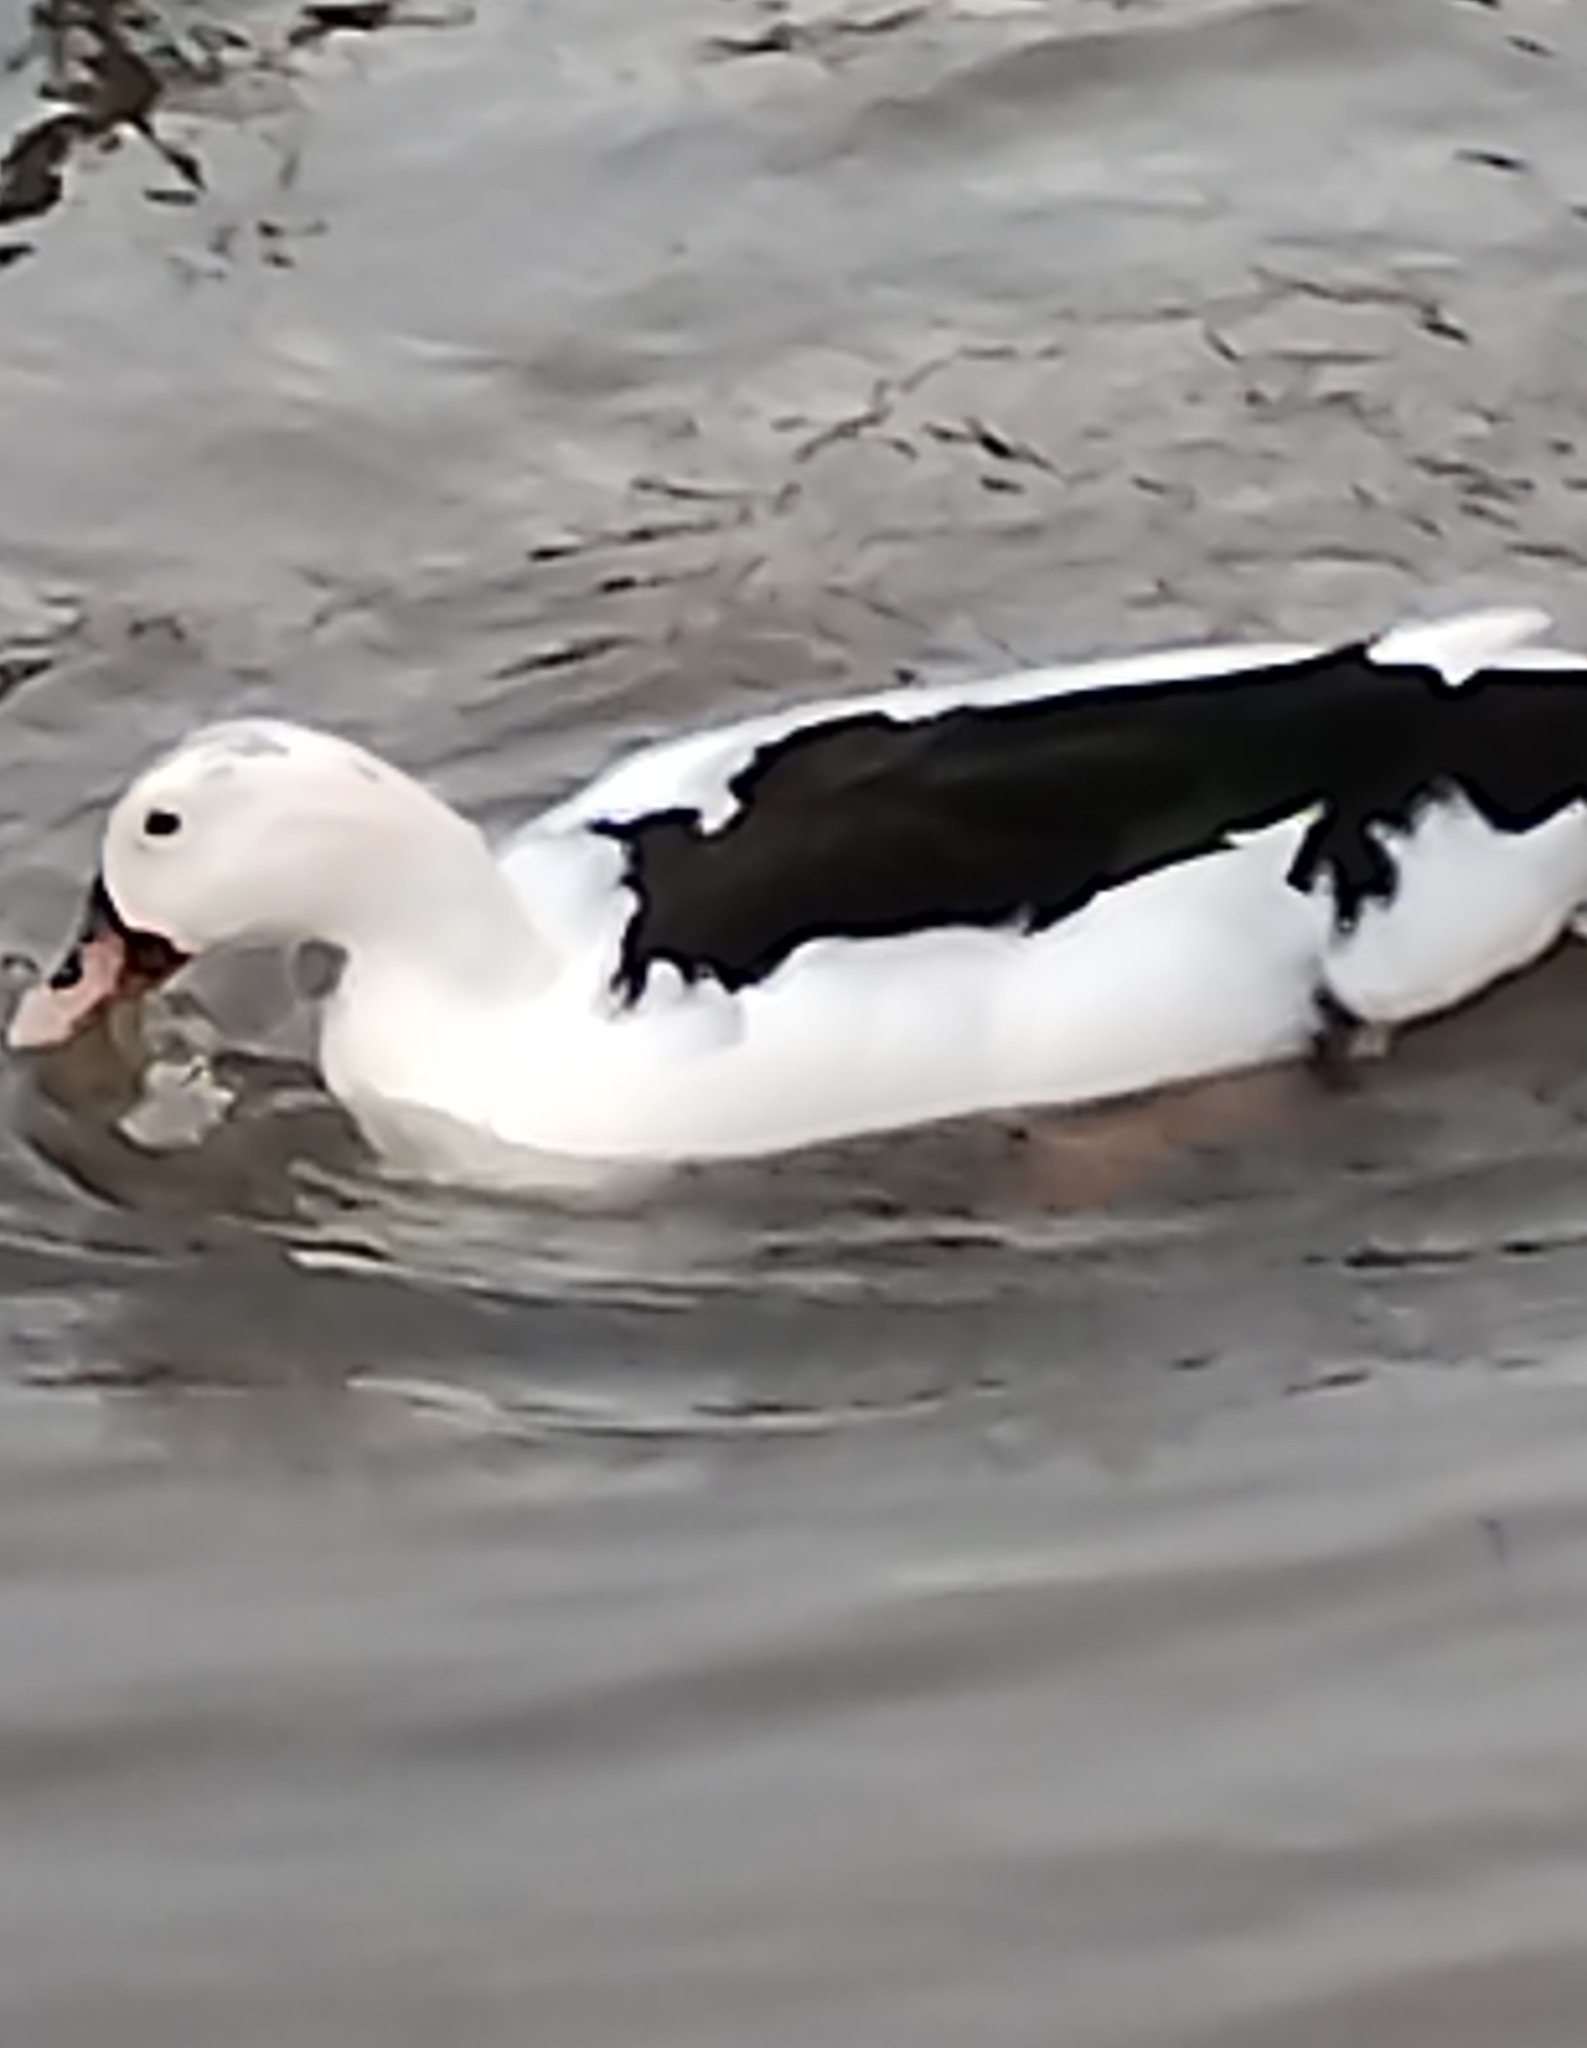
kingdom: Animalia
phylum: Chordata
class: Aves
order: Anseriformes
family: Anatidae
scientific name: Anatidae
